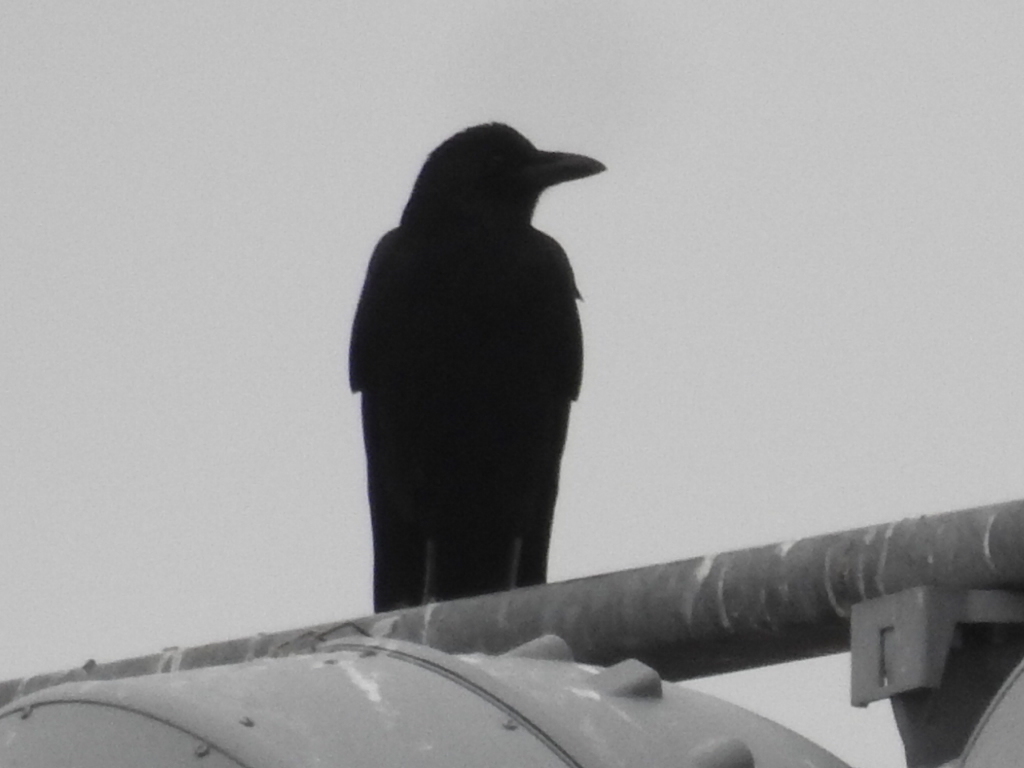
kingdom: Animalia
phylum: Chordata
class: Aves
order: Passeriformes
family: Corvidae
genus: Corvus
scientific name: Corvus brachyrhynchos
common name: American crow
